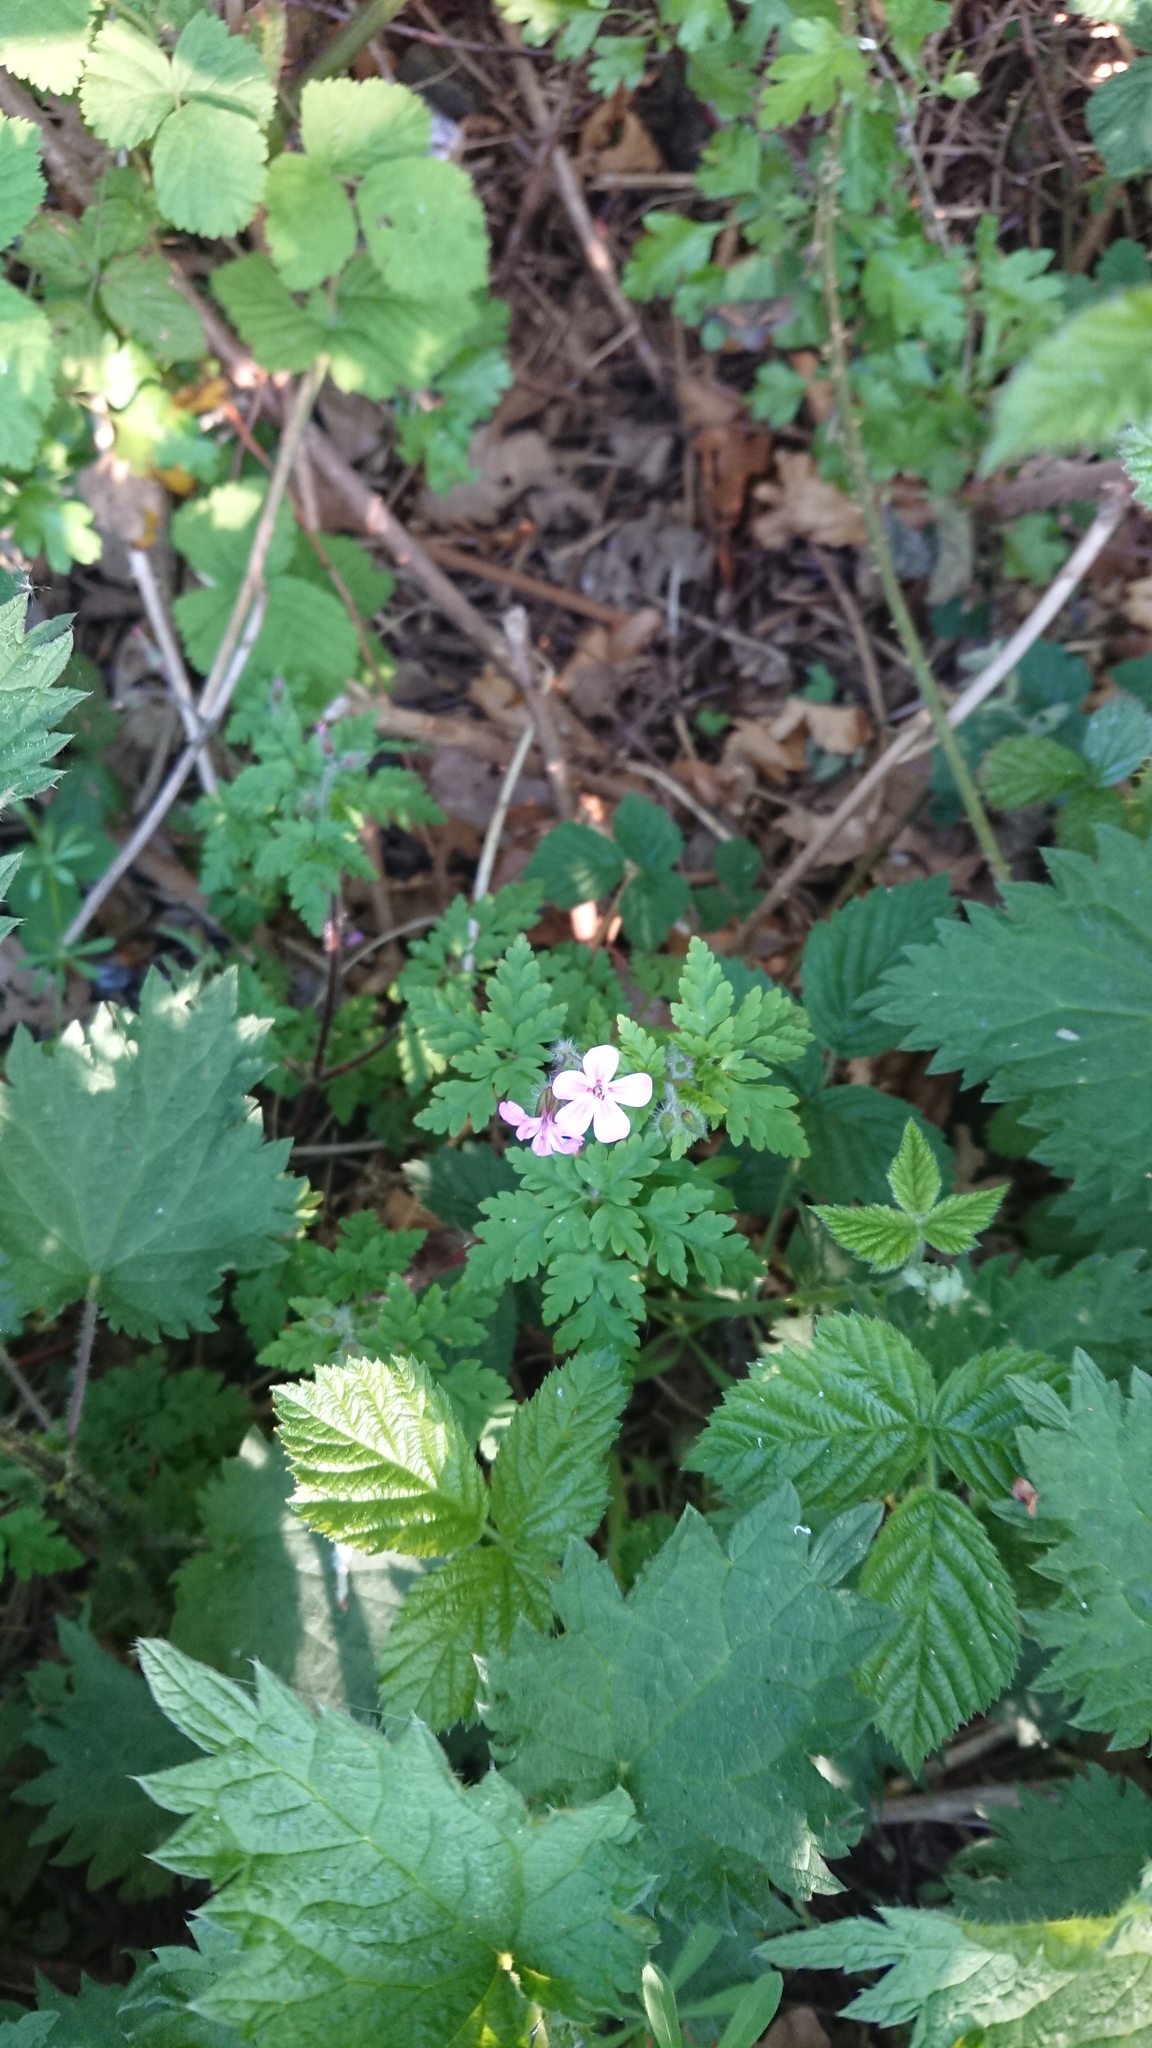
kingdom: Plantae
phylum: Tracheophyta
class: Magnoliopsida
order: Geraniales
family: Geraniaceae
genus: Geranium
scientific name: Geranium robertianum
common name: Herb-robert
